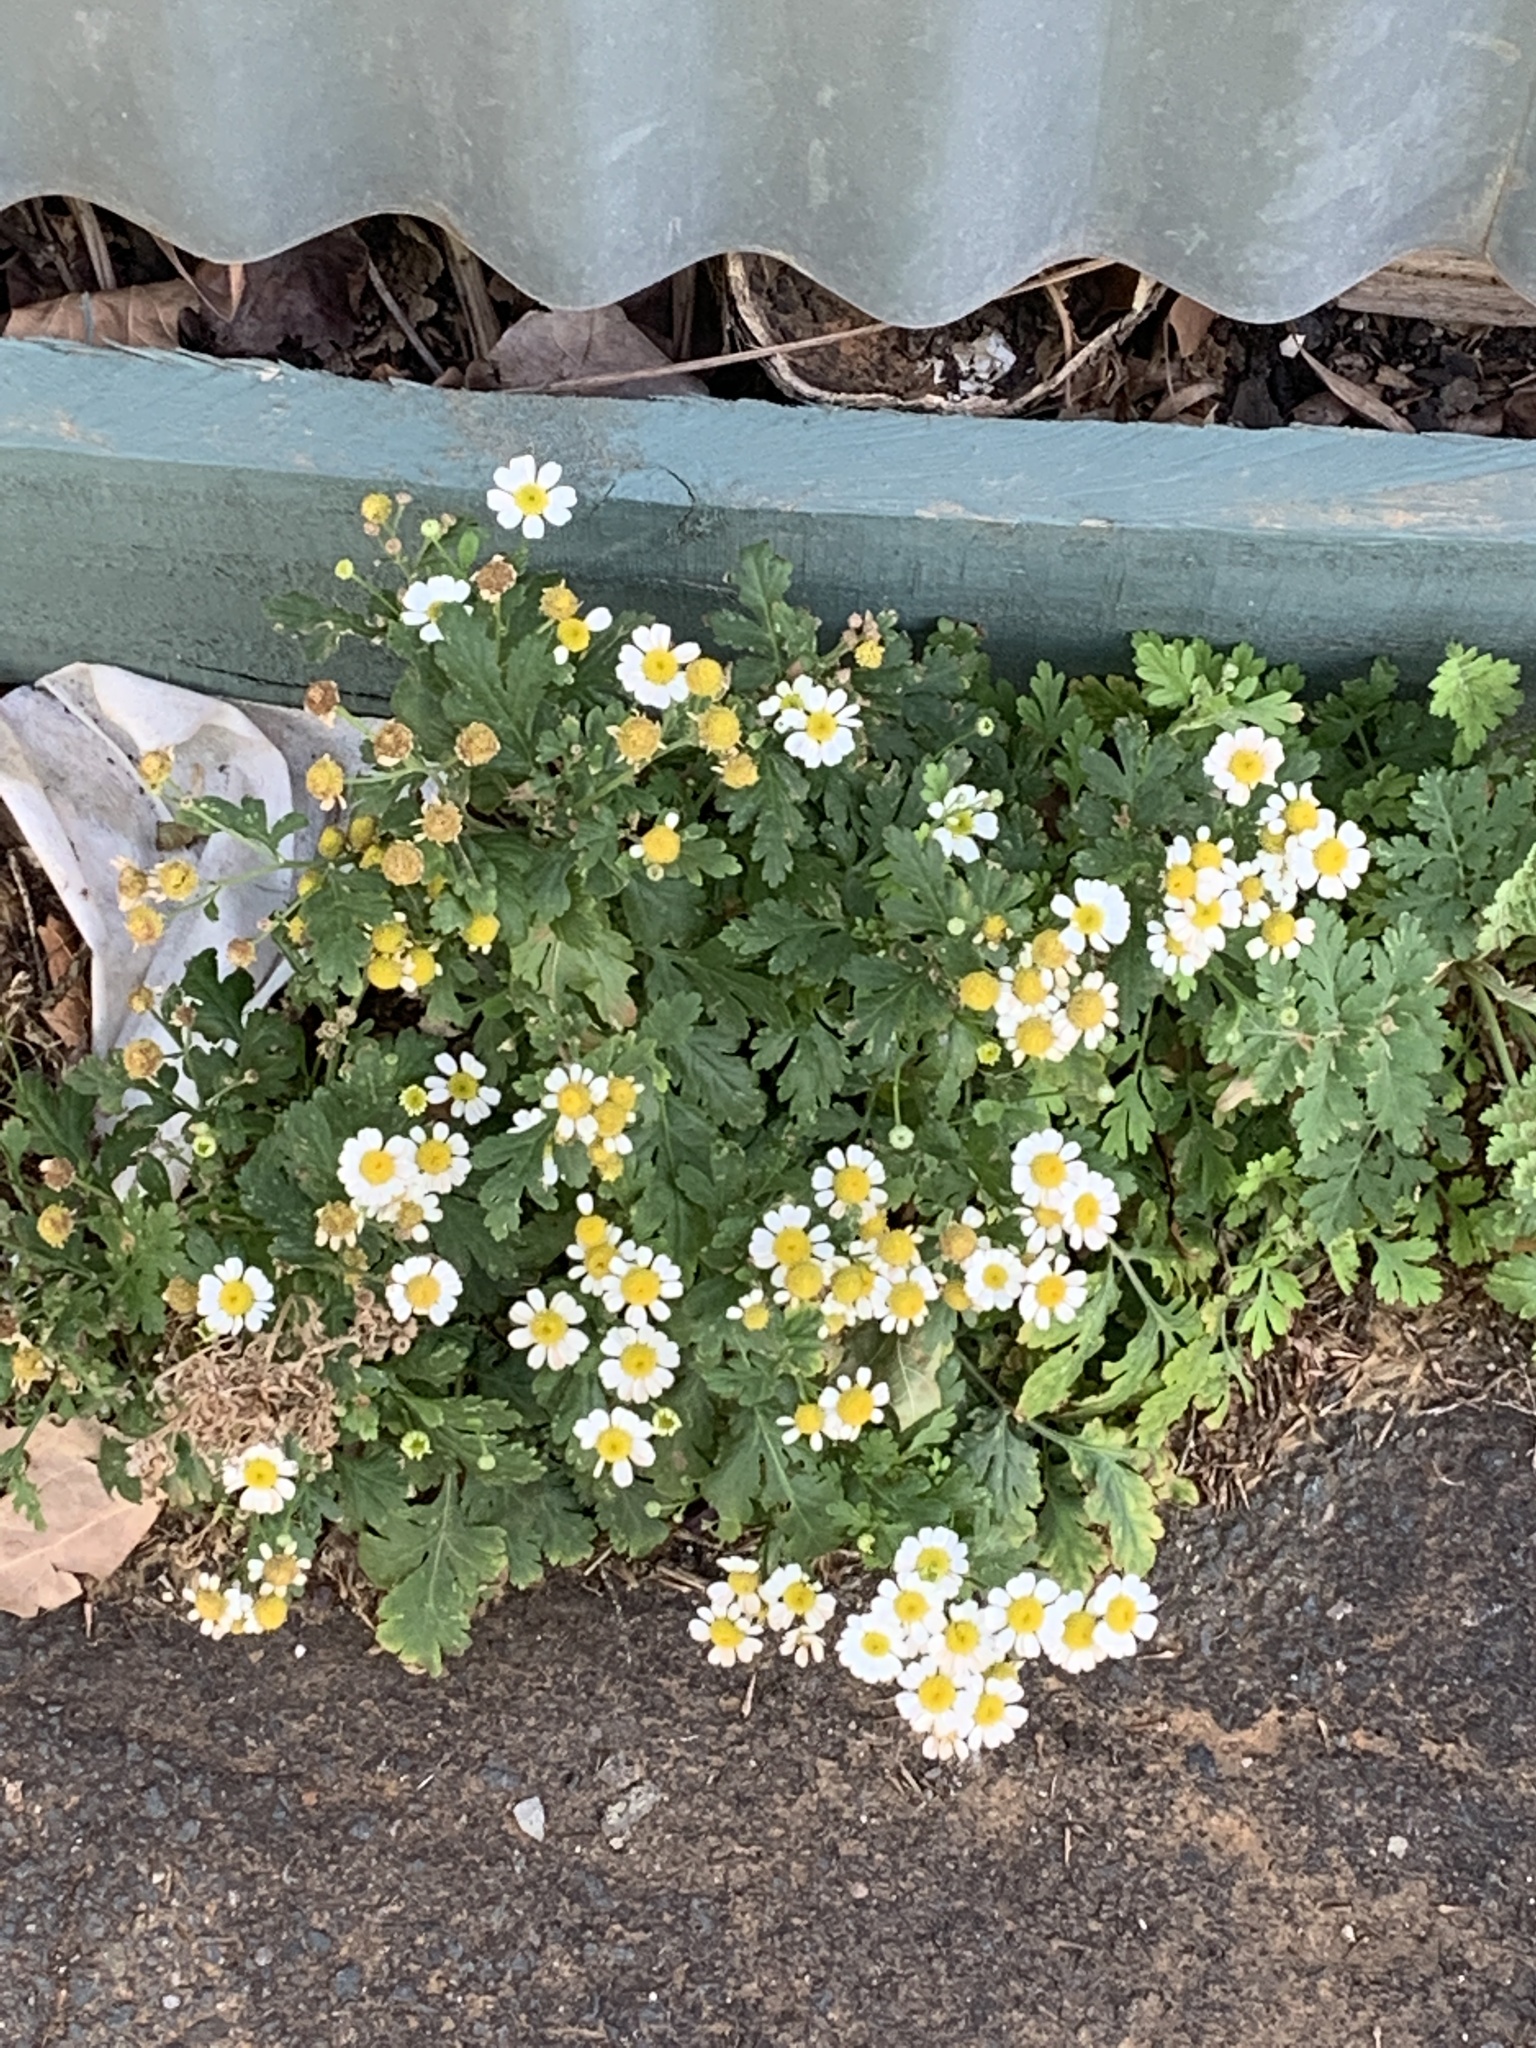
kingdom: Plantae
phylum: Tracheophyta
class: Magnoliopsida
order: Asterales
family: Asteraceae
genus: Tanacetum
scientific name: Tanacetum parthenium
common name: Feverfew
